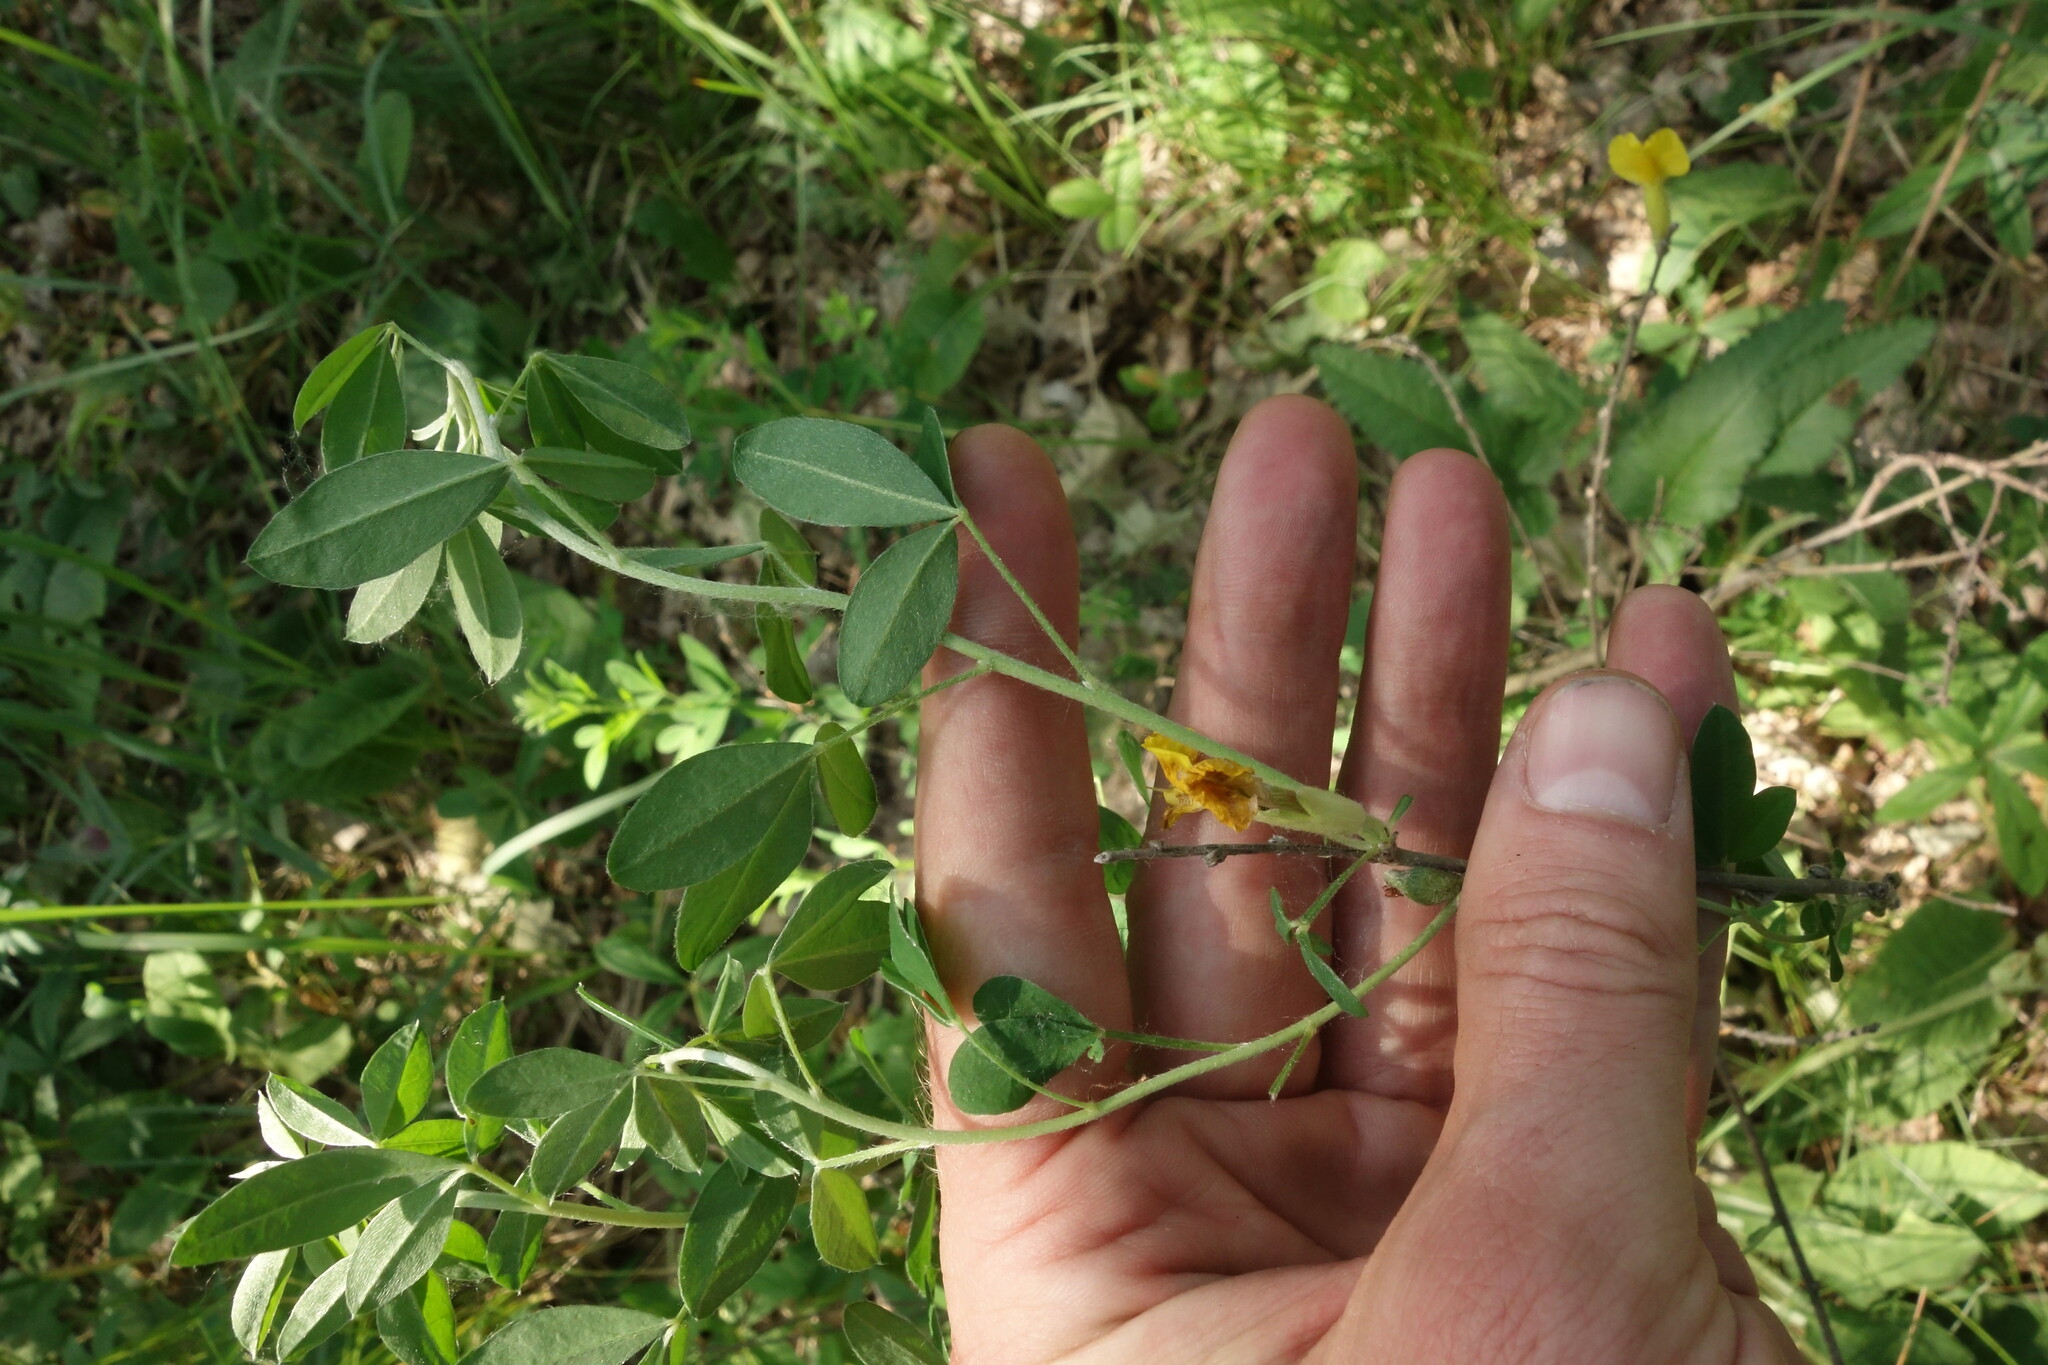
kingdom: Plantae
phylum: Tracheophyta
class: Magnoliopsida
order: Fabales
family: Fabaceae
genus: Chamaecytisus
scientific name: Chamaecytisus ruthenicus
